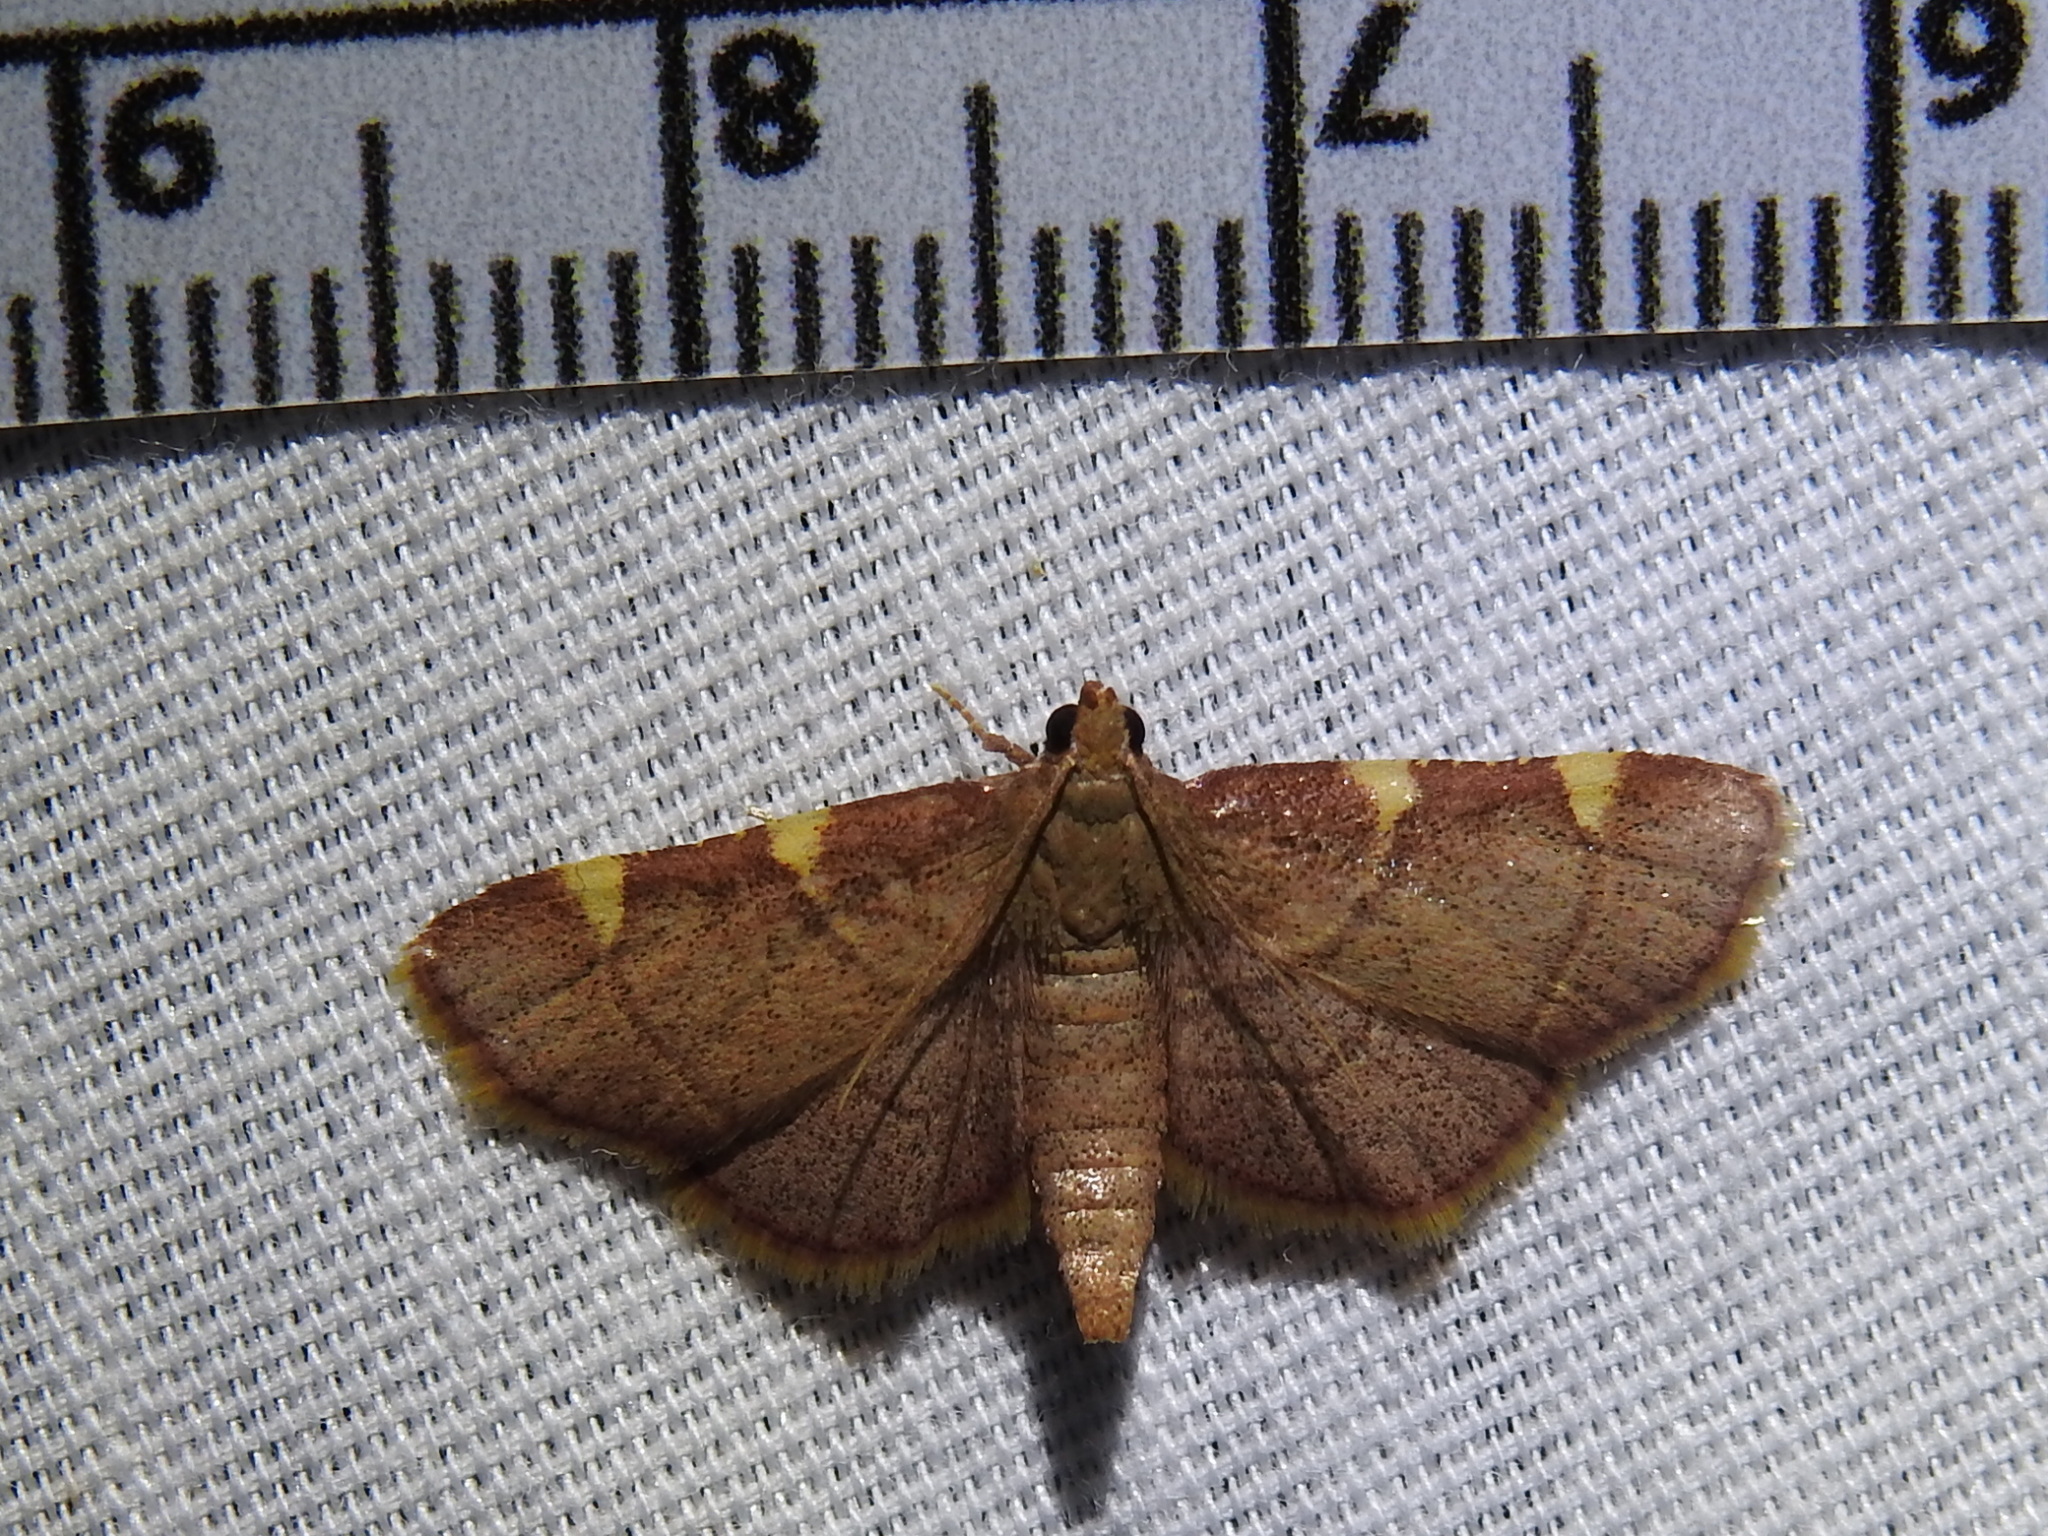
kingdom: Animalia
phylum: Arthropoda
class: Insecta
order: Lepidoptera
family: Pyralidae
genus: Hypsopygia
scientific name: Hypsopygia olinalis
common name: Yellow-fringed dolichomia moth
